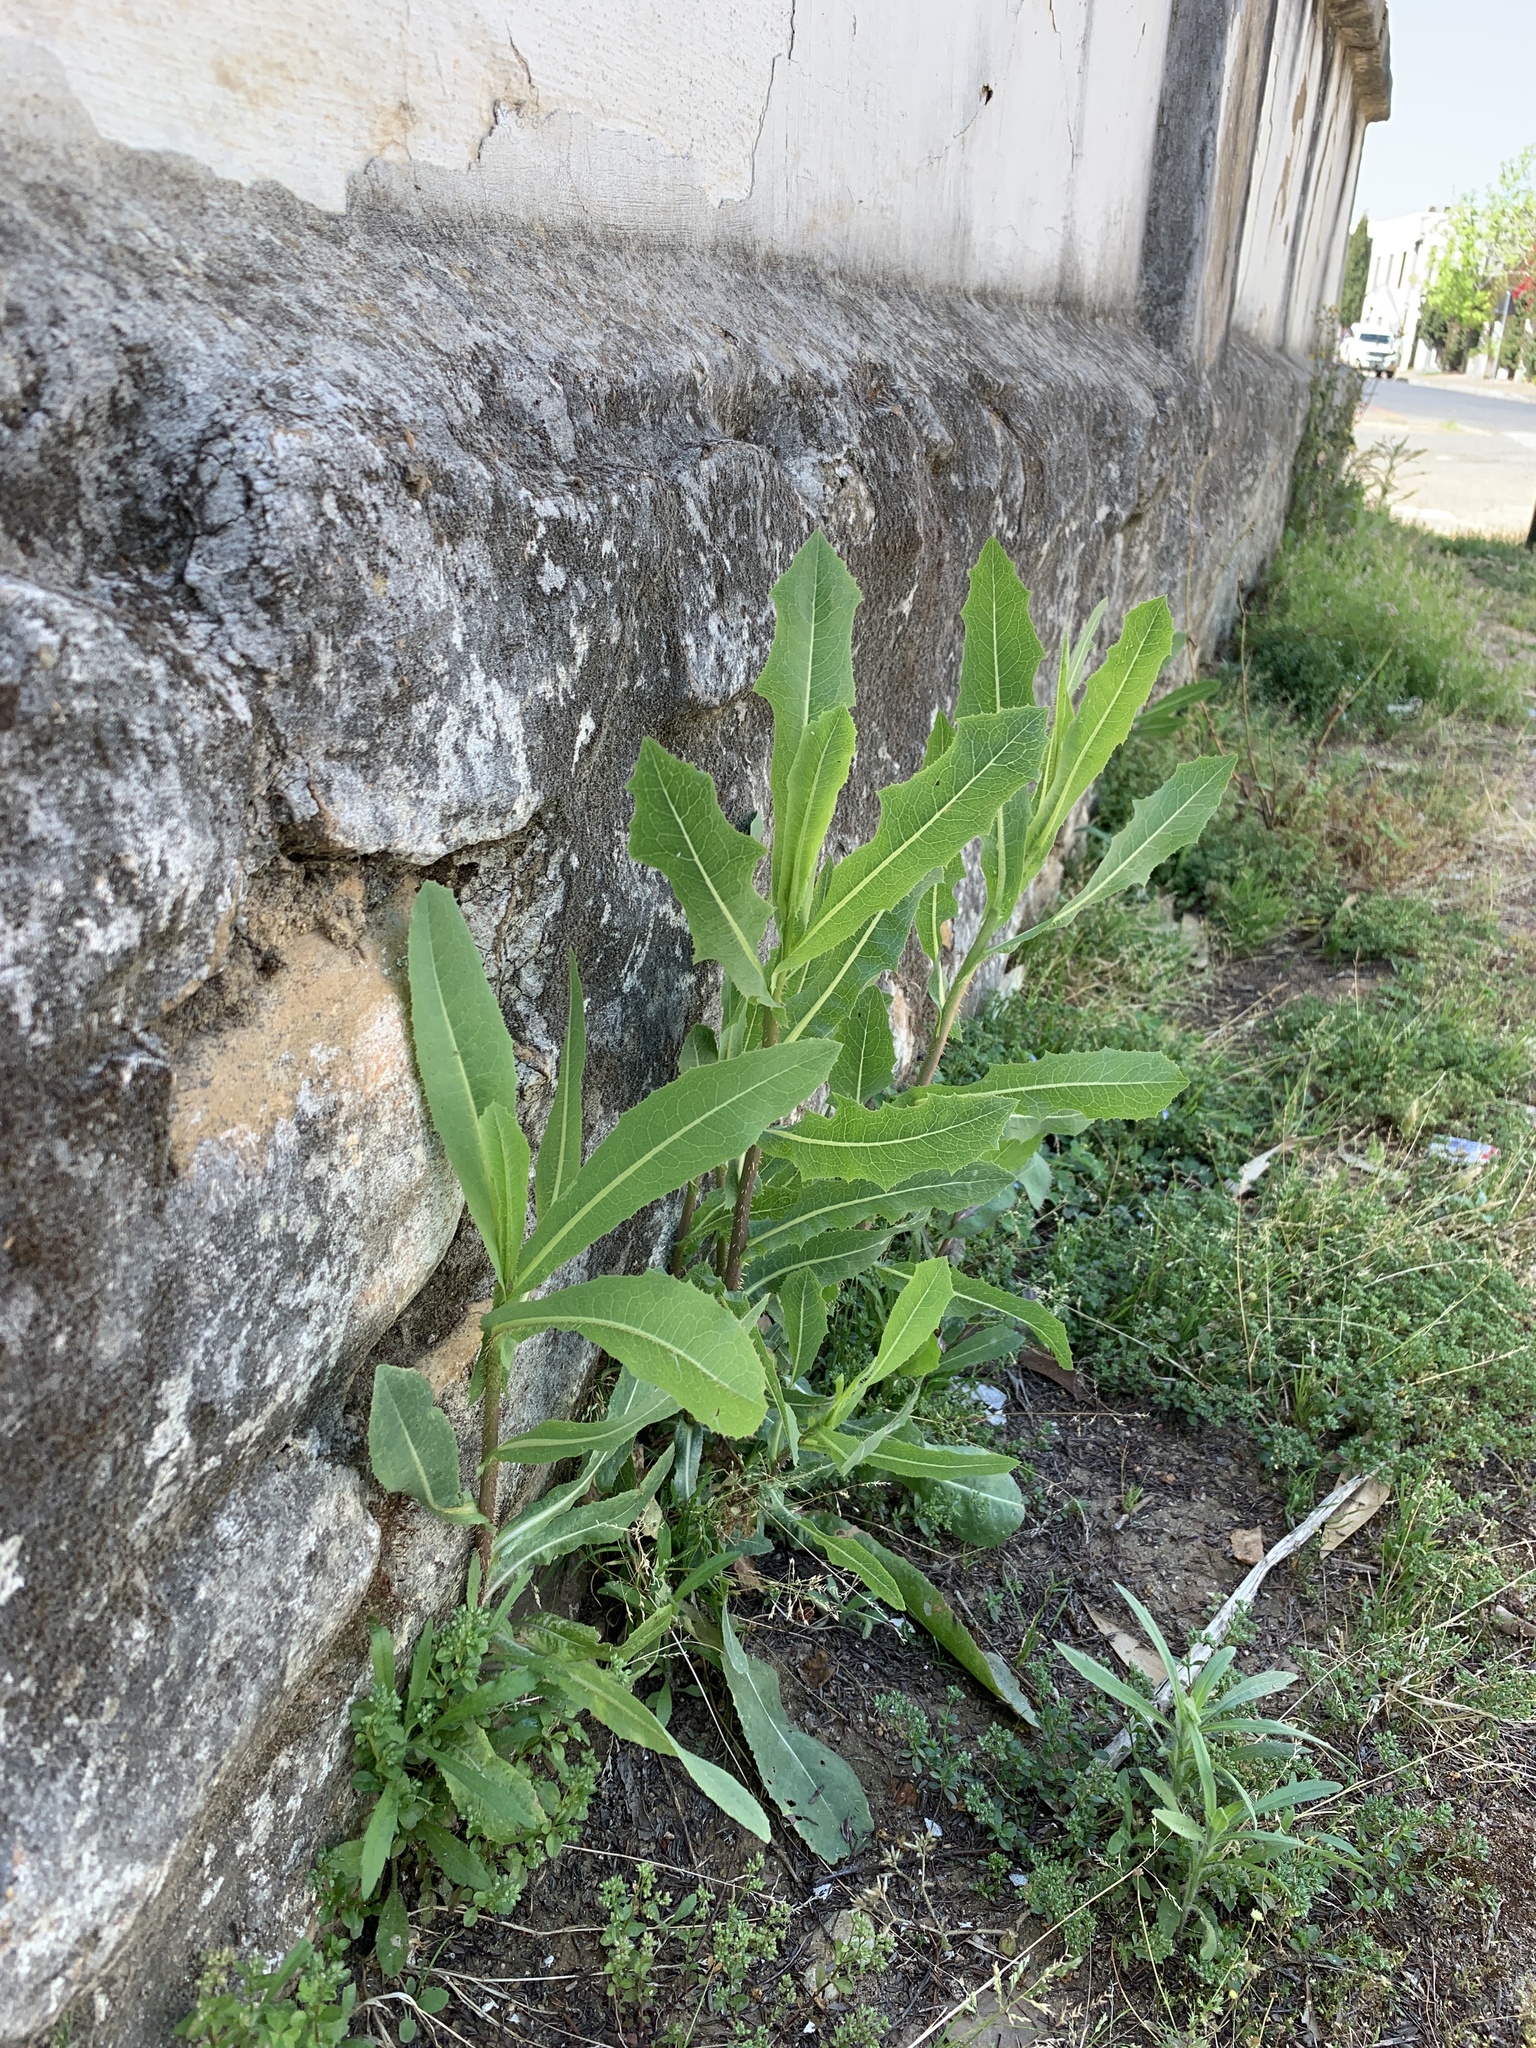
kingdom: Plantae
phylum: Tracheophyta
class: Magnoliopsida
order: Asterales
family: Asteraceae
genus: Lactuca
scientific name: Lactuca serriola
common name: Prickly lettuce
